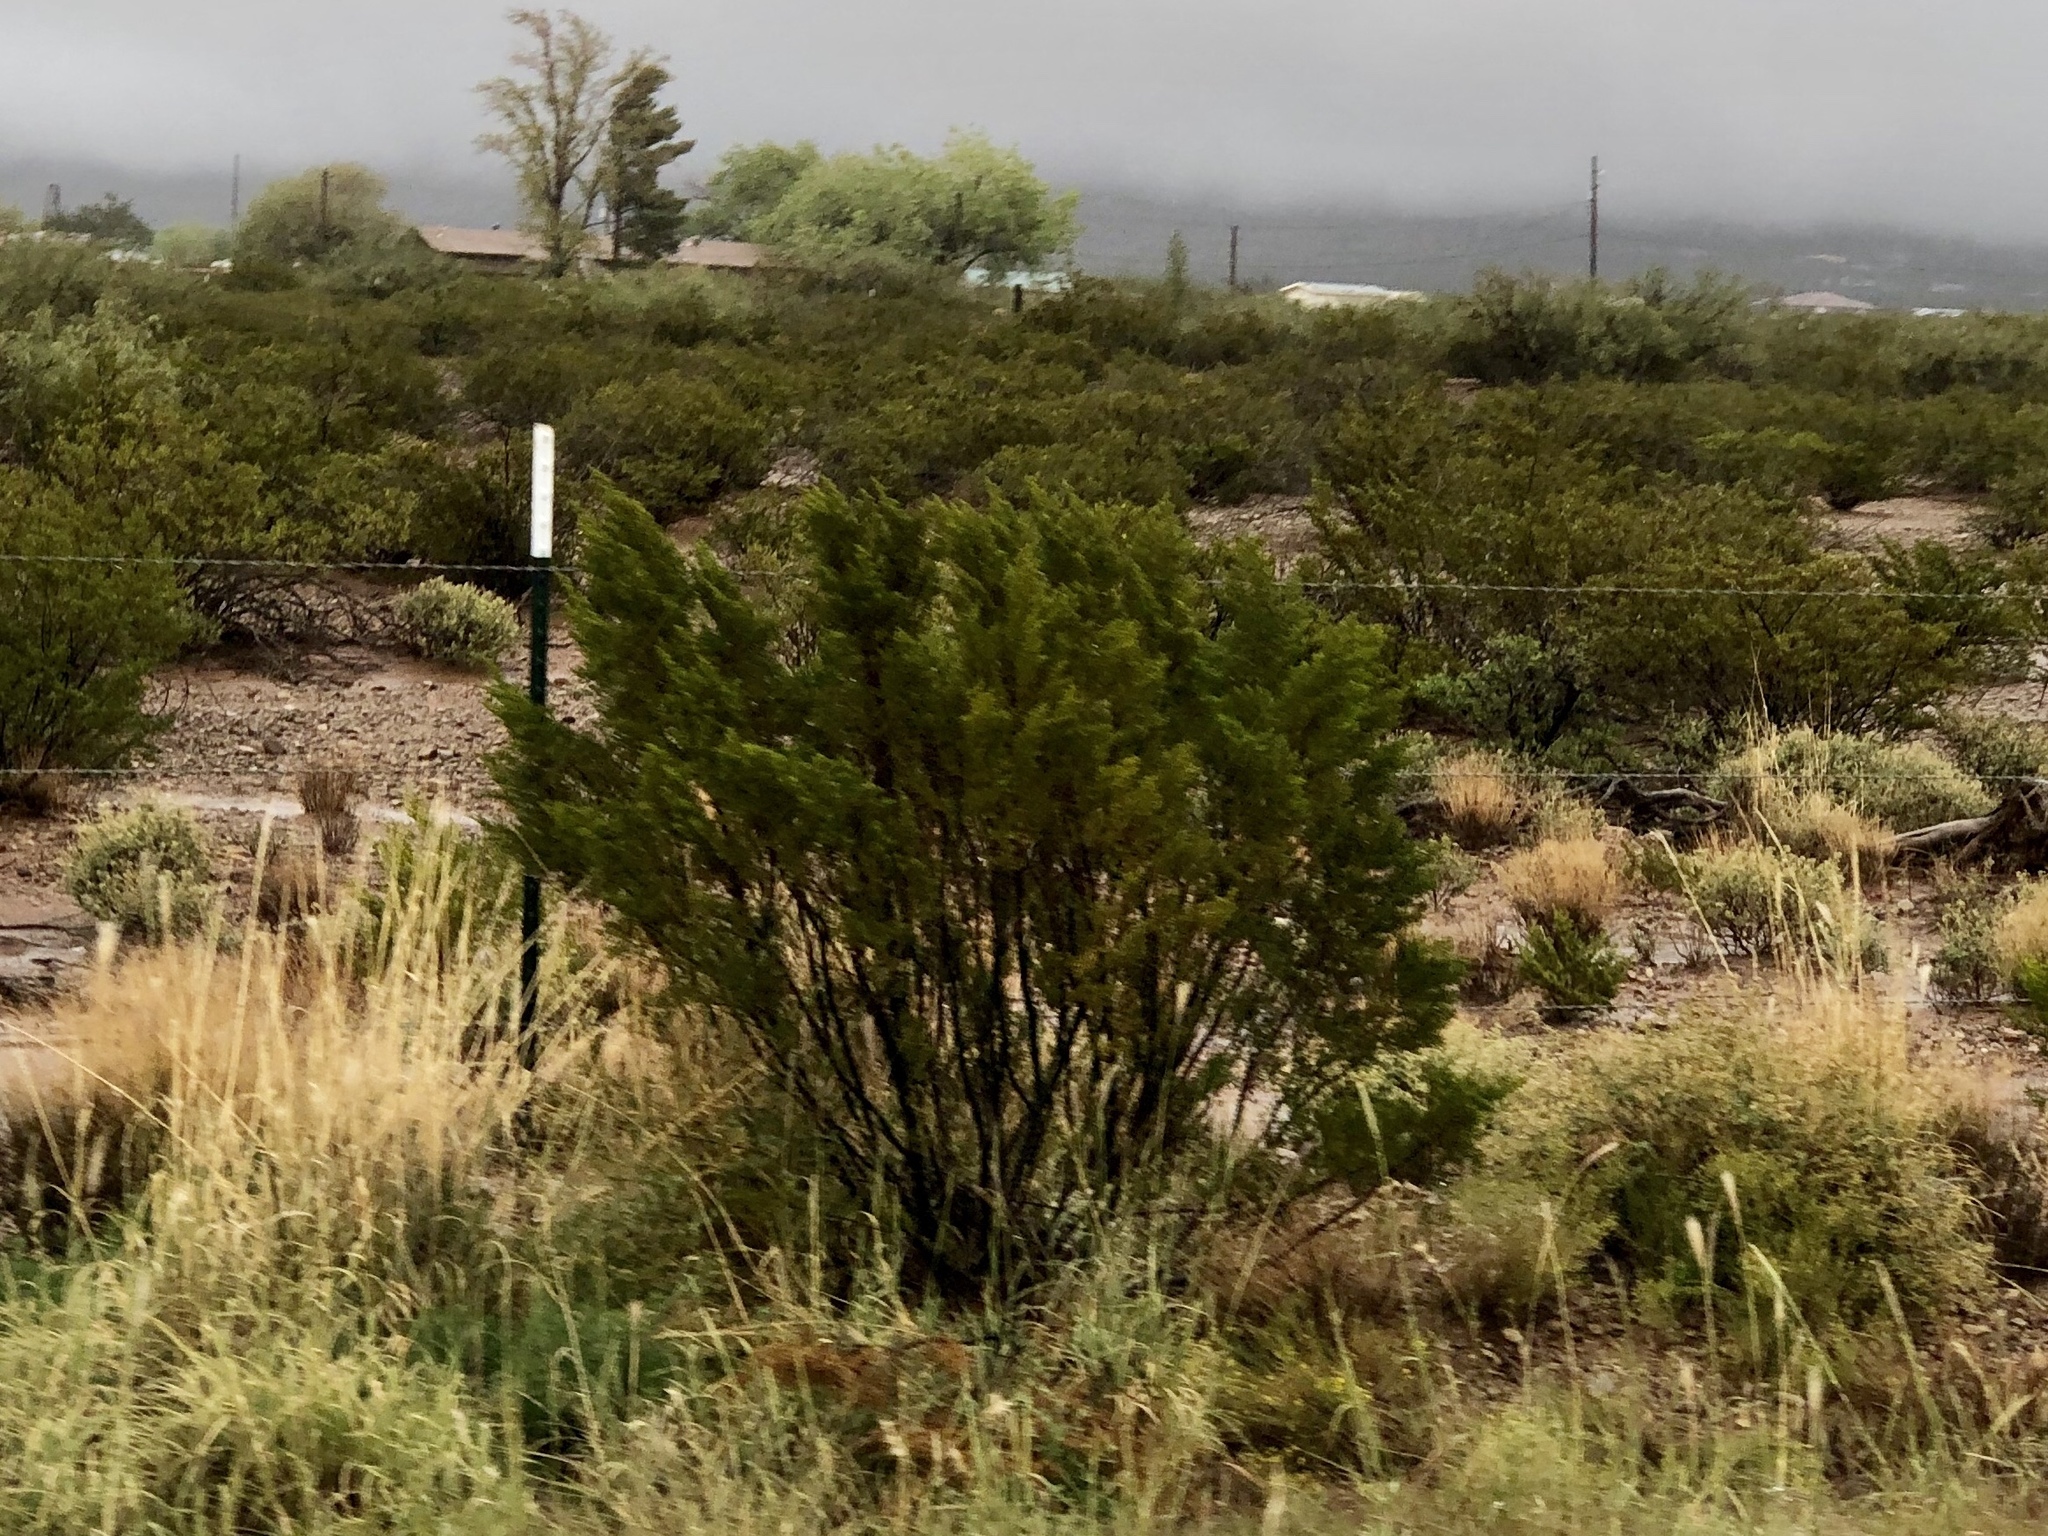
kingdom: Plantae
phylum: Tracheophyta
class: Magnoliopsida
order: Zygophyllales
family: Zygophyllaceae
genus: Larrea
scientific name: Larrea tridentata
